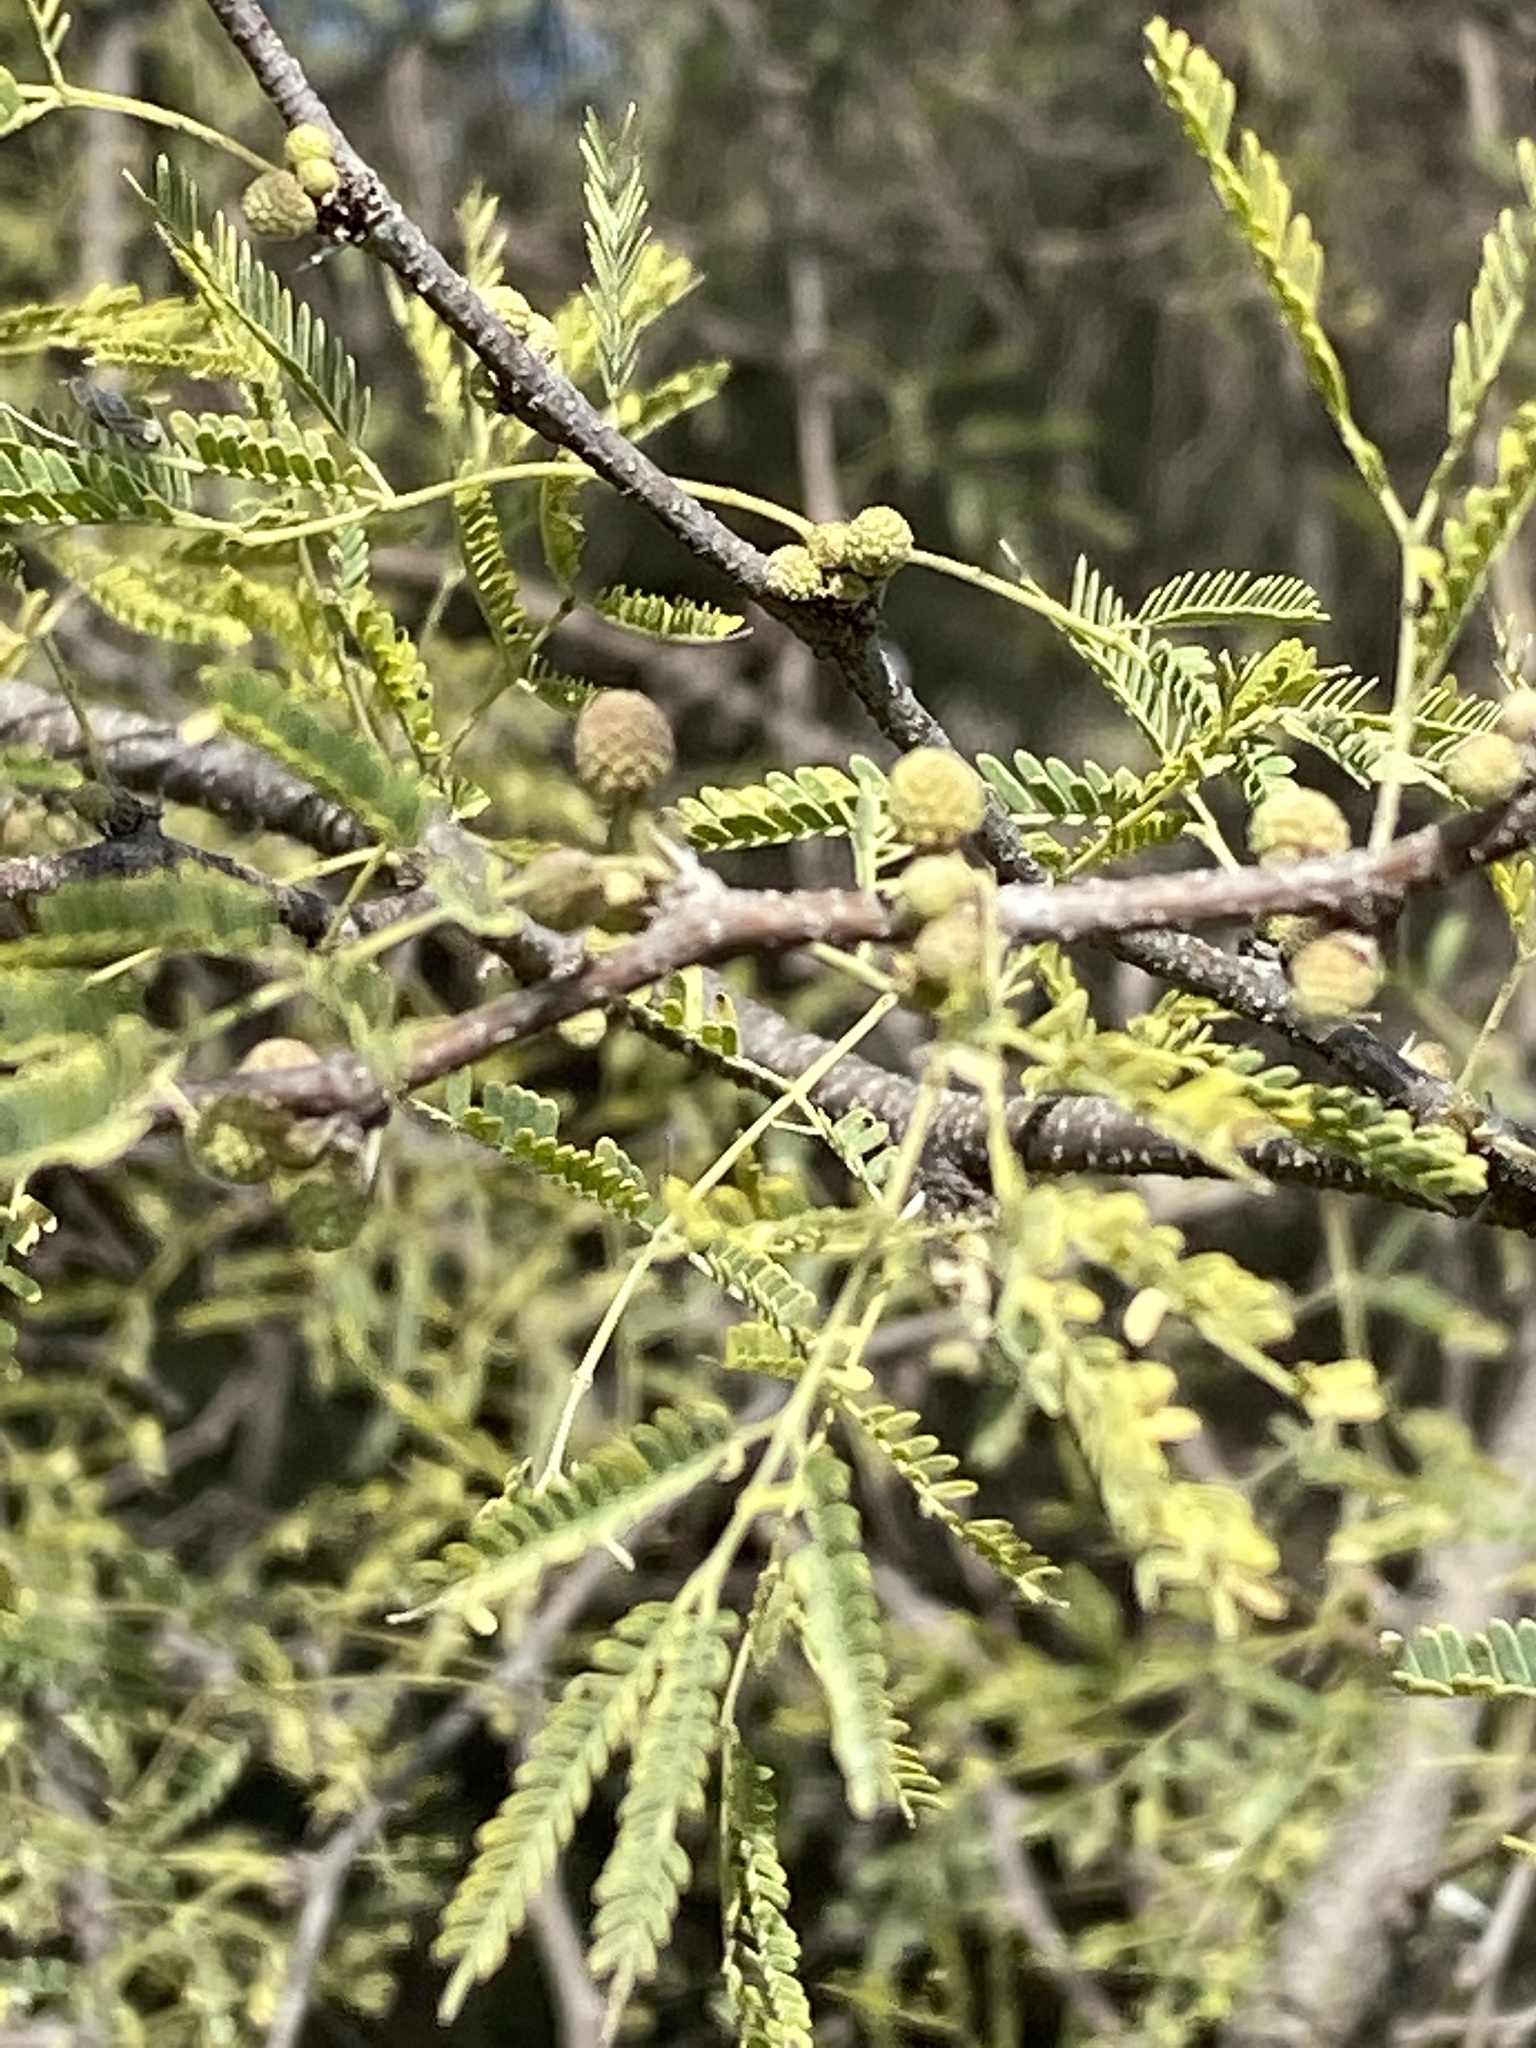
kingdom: Plantae
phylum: Tracheophyta
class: Magnoliopsida
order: Fabales
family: Fabaceae
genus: Vachellia
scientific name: Vachellia farnesiana
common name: Sweet acacia
